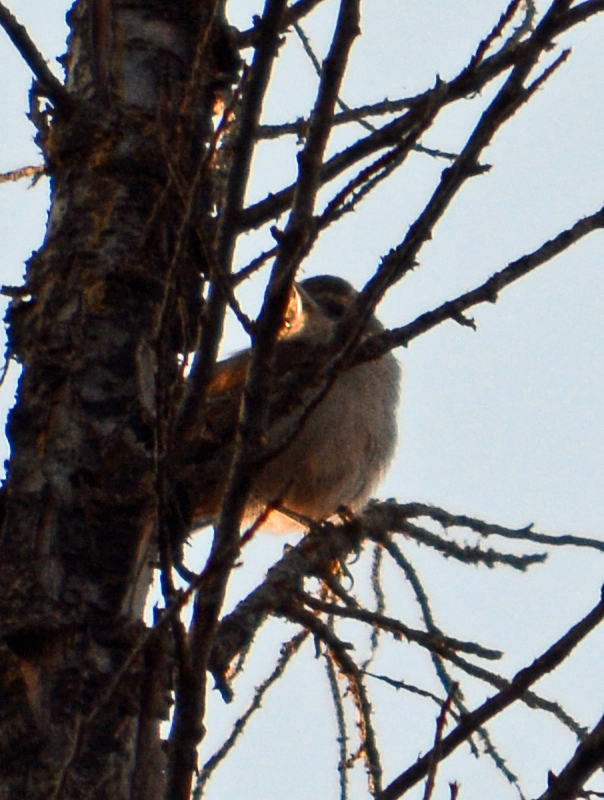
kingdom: Animalia
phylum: Chordata
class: Aves
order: Passeriformes
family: Troglodytidae
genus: Thryomanes
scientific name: Thryomanes bewickii
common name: Bewick's wren
